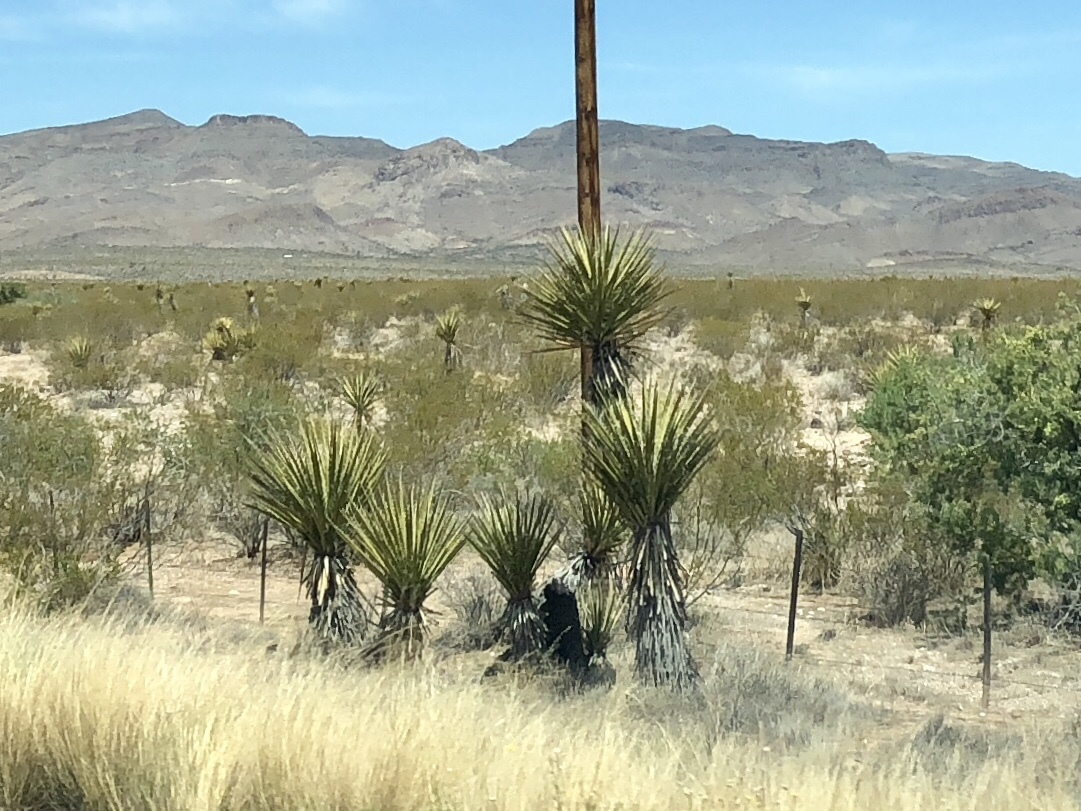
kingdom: Plantae
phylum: Tracheophyta
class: Liliopsida
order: Asparagales
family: Asparagaceae
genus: Yucca
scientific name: Yucca schidigera
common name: Mojave yucca
